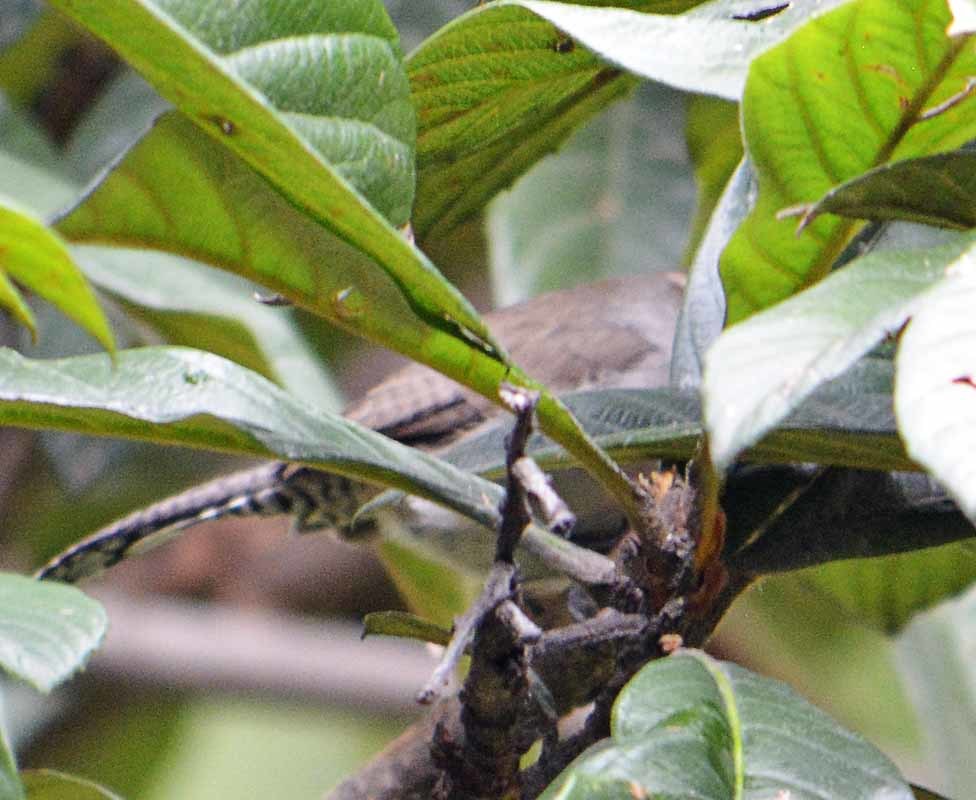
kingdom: Animalia
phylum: Chordata
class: Aves
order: Passeriformes
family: Troglodytidae
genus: Thryomanes
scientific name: Thryomanes bewickii
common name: Bewick's wren
